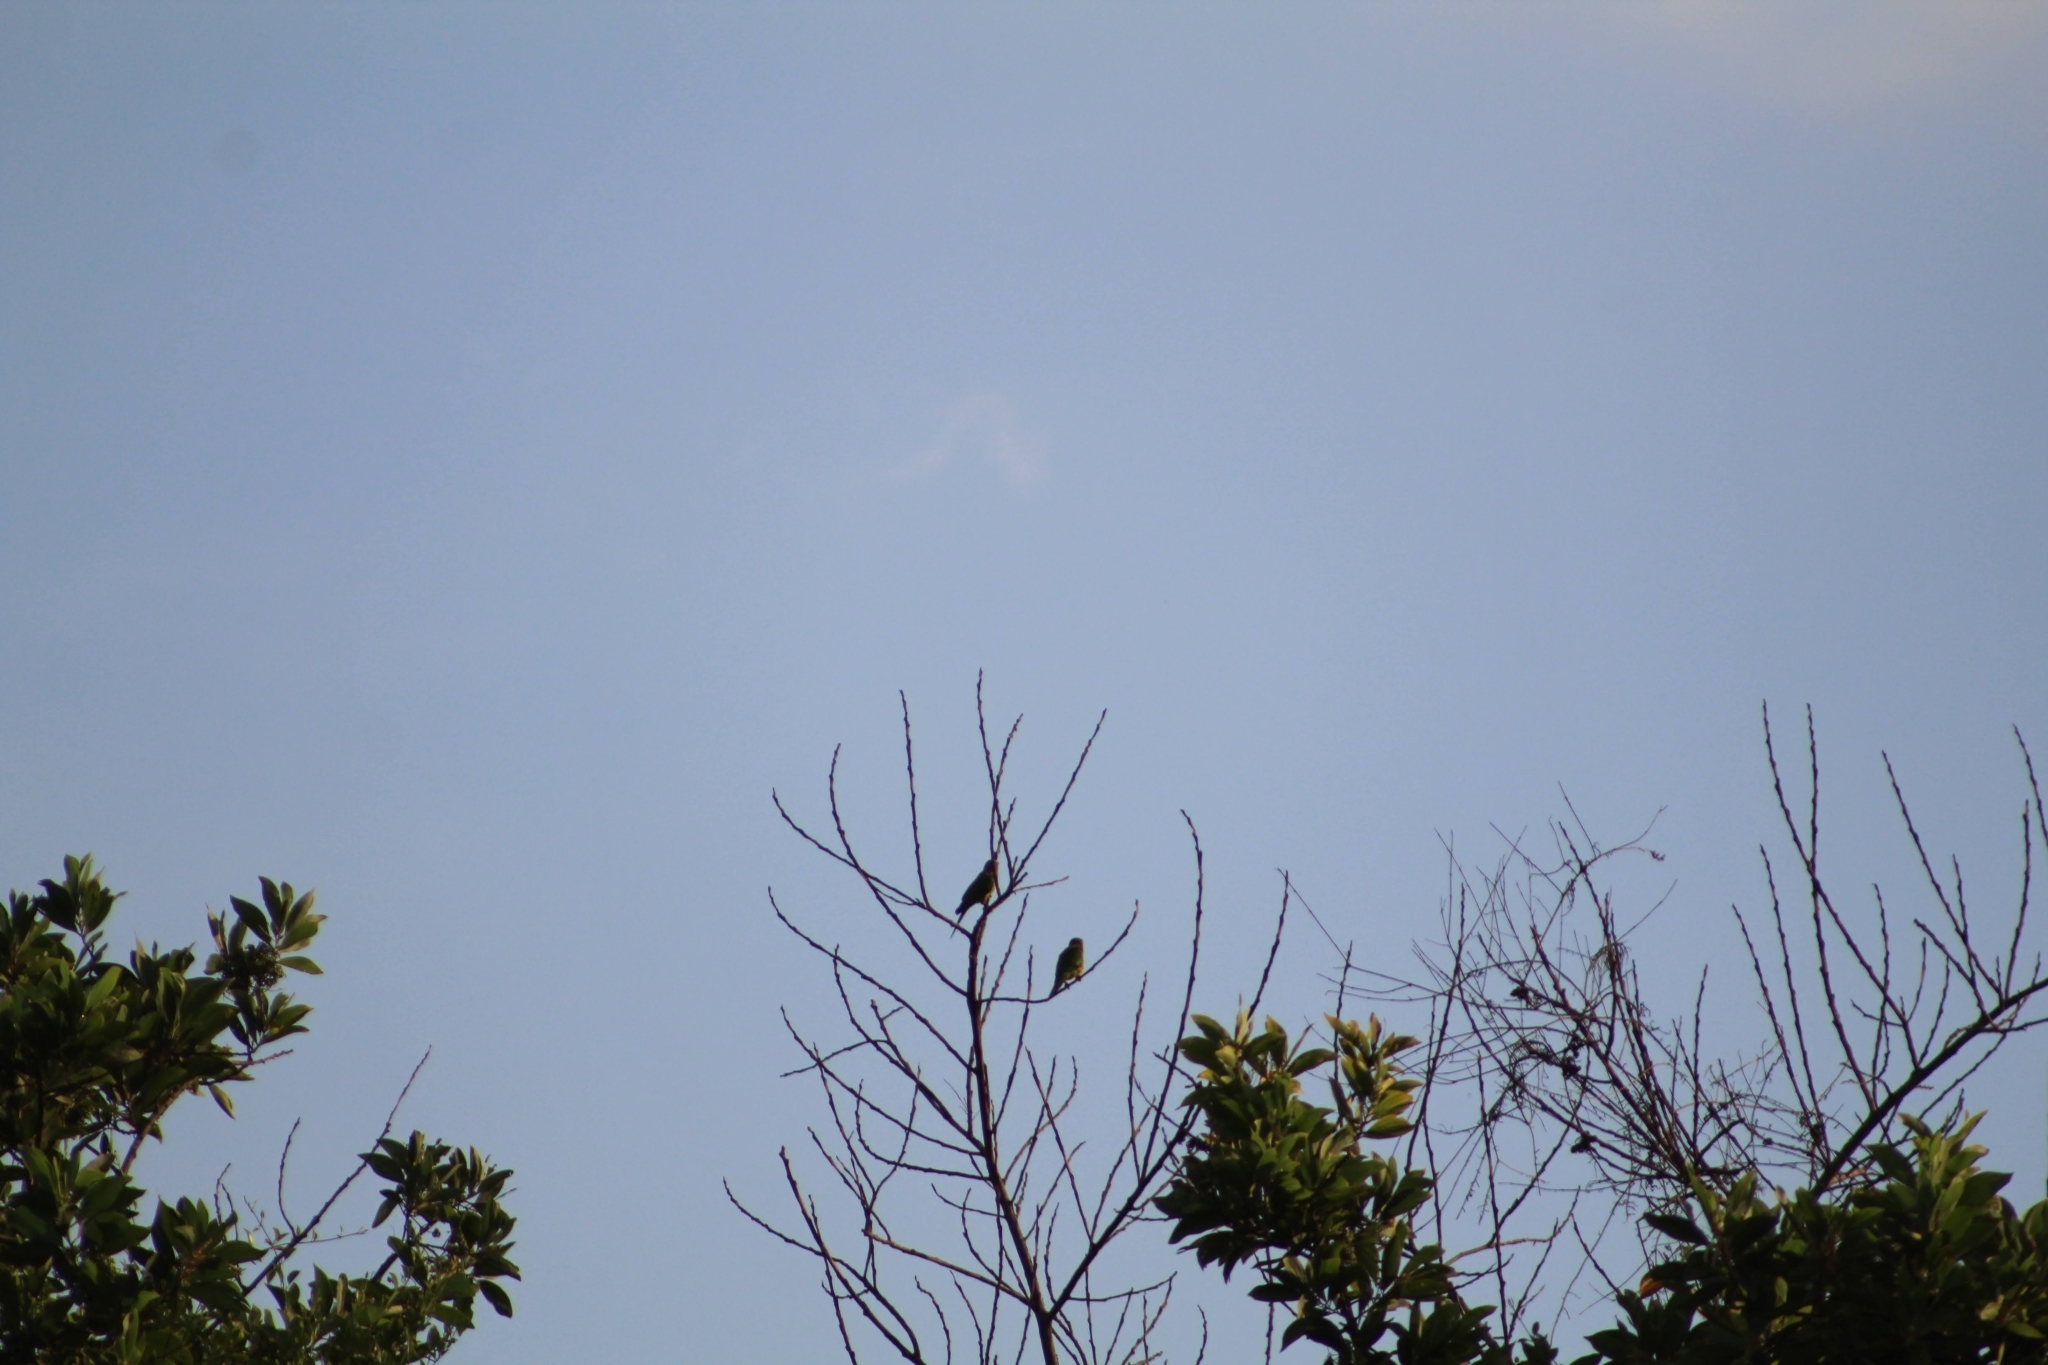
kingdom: Animalia
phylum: Chordata
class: Aves
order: Psittaciformes
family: Psittacidae
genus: Aratinga
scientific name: Aratinga pertinax
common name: Brown-throated parakeet
